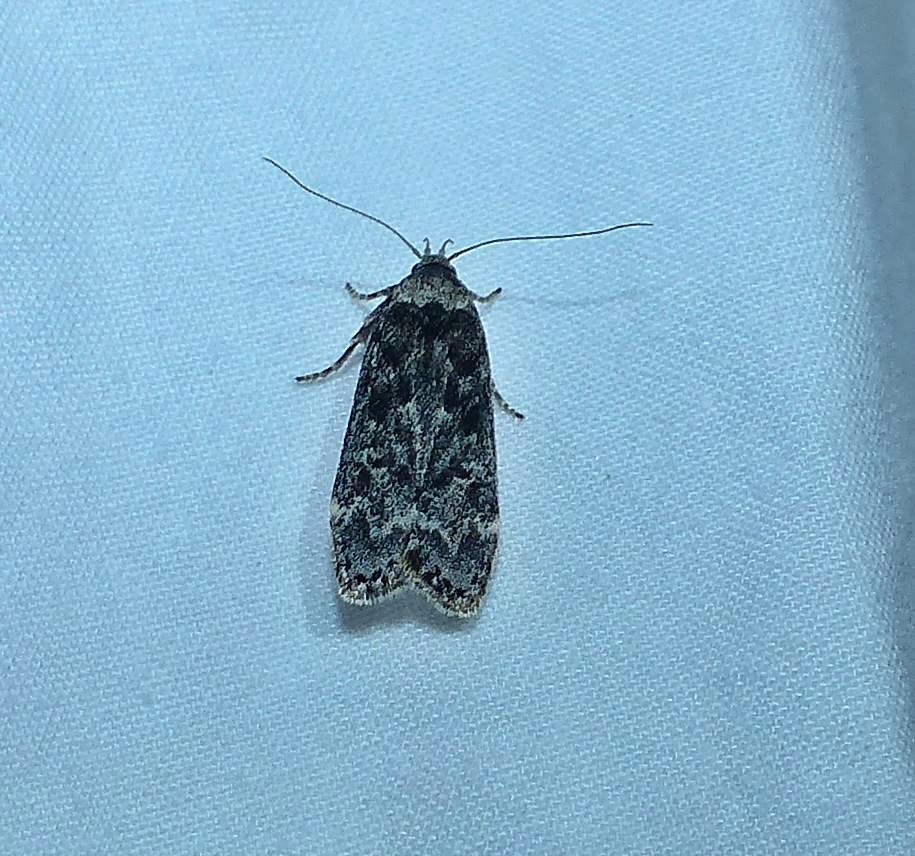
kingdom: Animalia
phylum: Arthropoda
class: Insecta
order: Lepidoptera
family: Gelechiidae
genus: Anacampsis
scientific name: Anacampsis niveopulvella
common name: Pale-headed aspen leafroller moth
